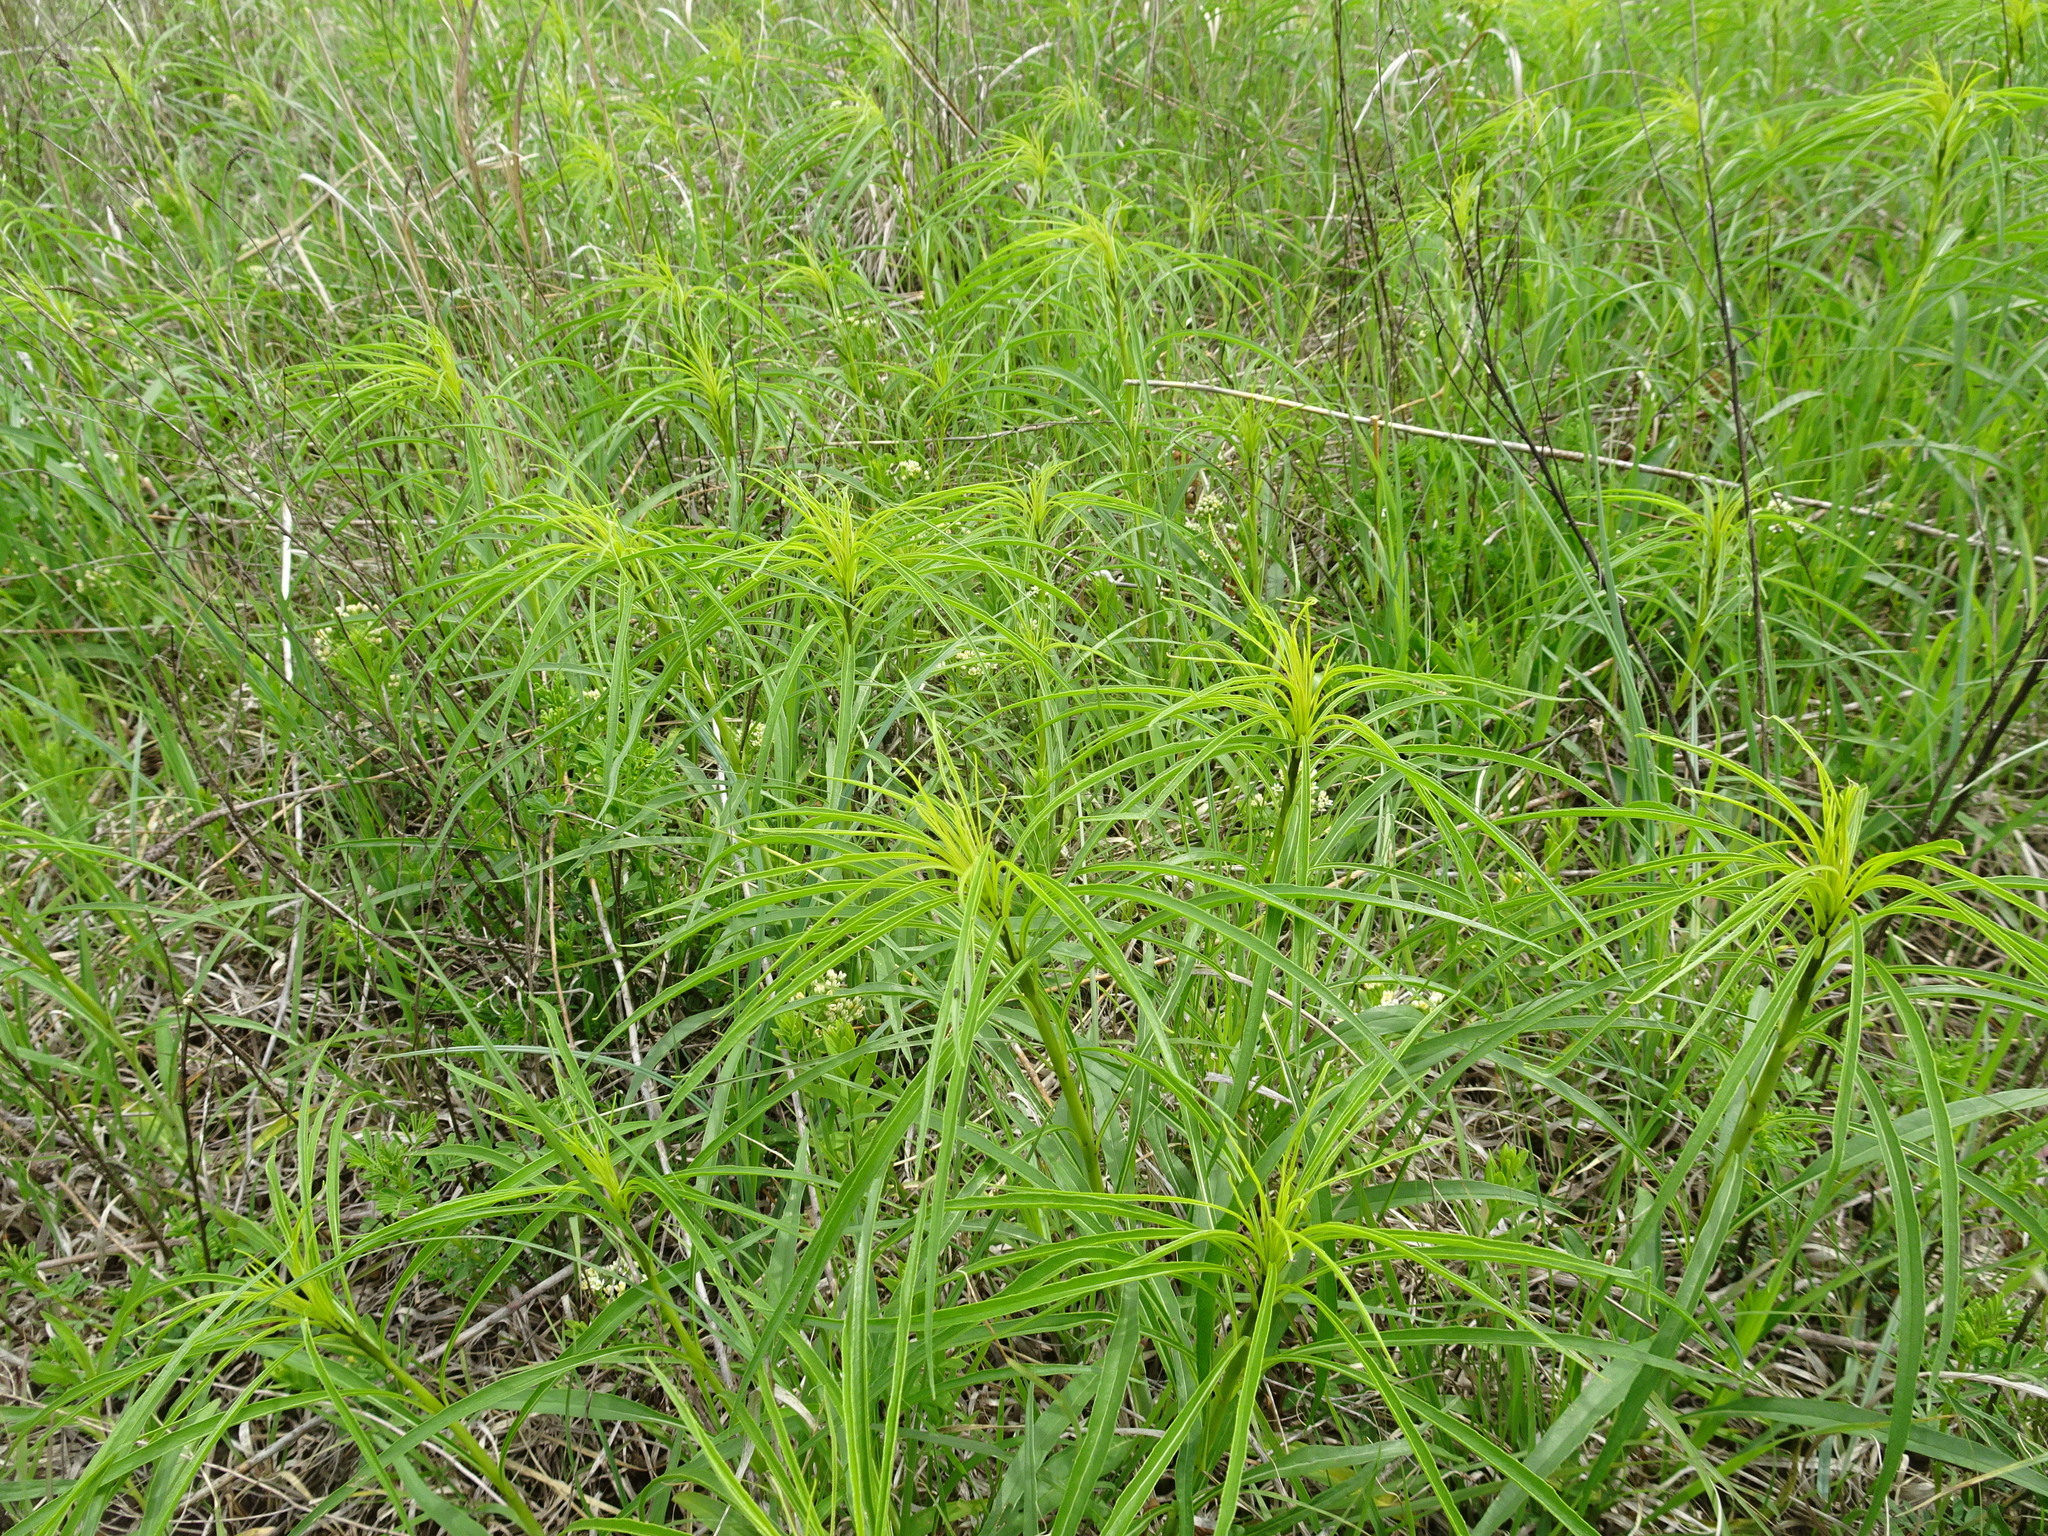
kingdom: Plantae
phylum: Tracheophyta
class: Magnoliopsida
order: Asterales
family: Asteraceae
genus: Helianthus
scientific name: Helianthus salicifolius
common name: Willowleaf sunflower
